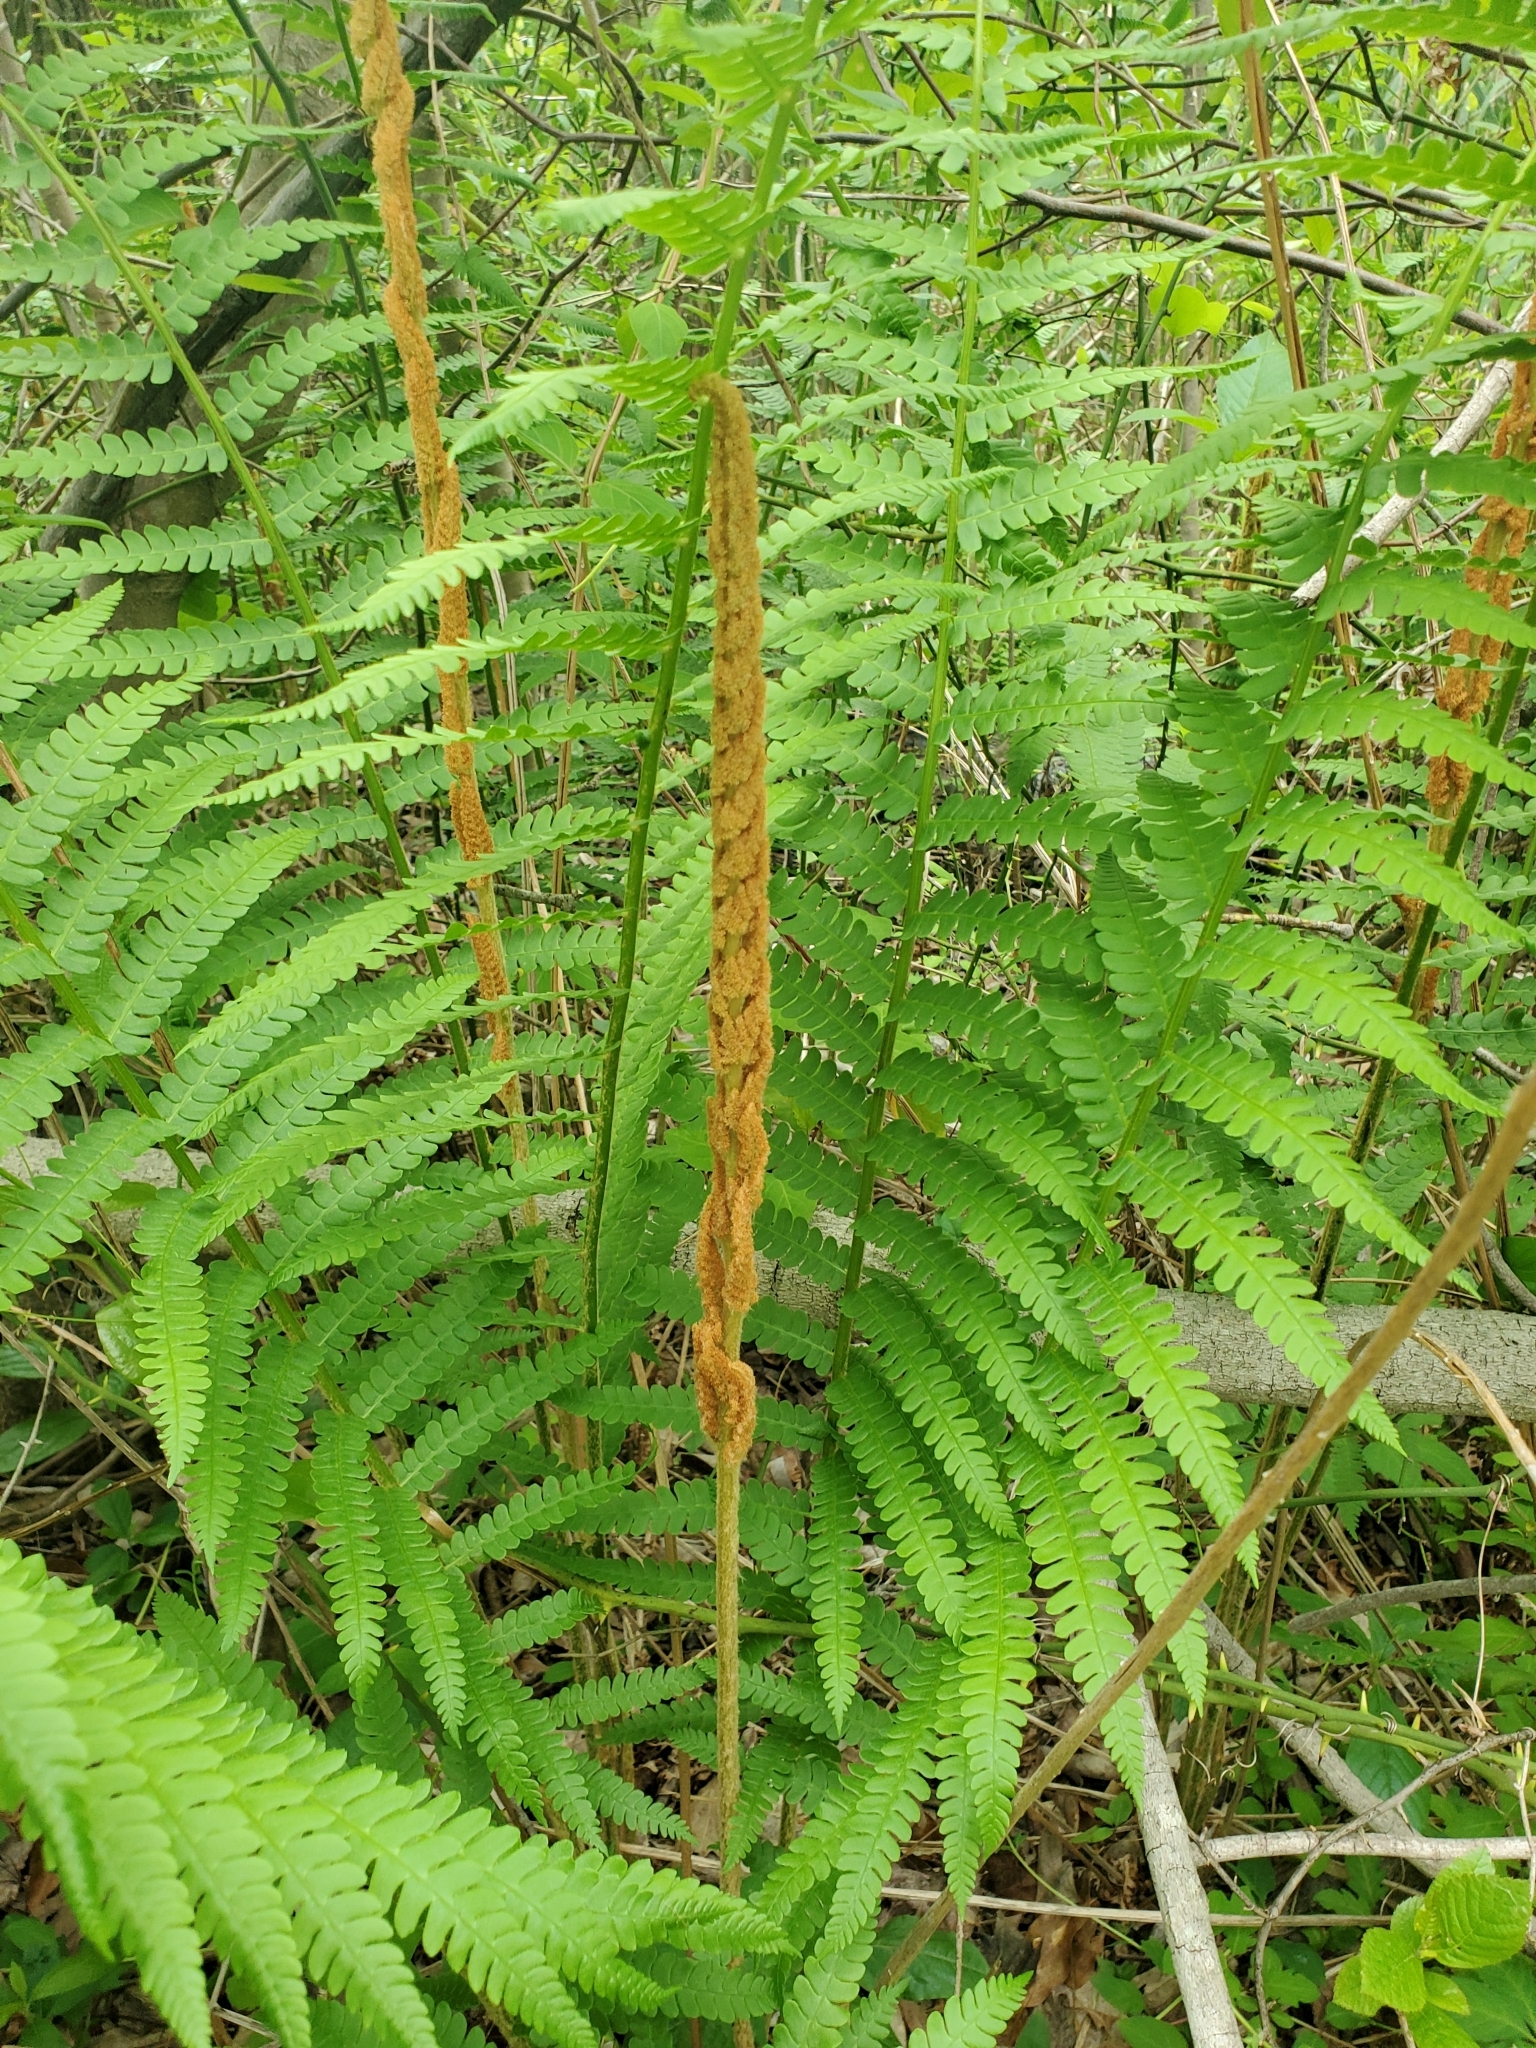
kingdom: Plantae
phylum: Tracheophyta
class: Polypodiopsida
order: Osmundales
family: Osmundaceae
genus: Osmundastrum
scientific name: Osmundastrum cinnamomeum
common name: Cinnamon fern
